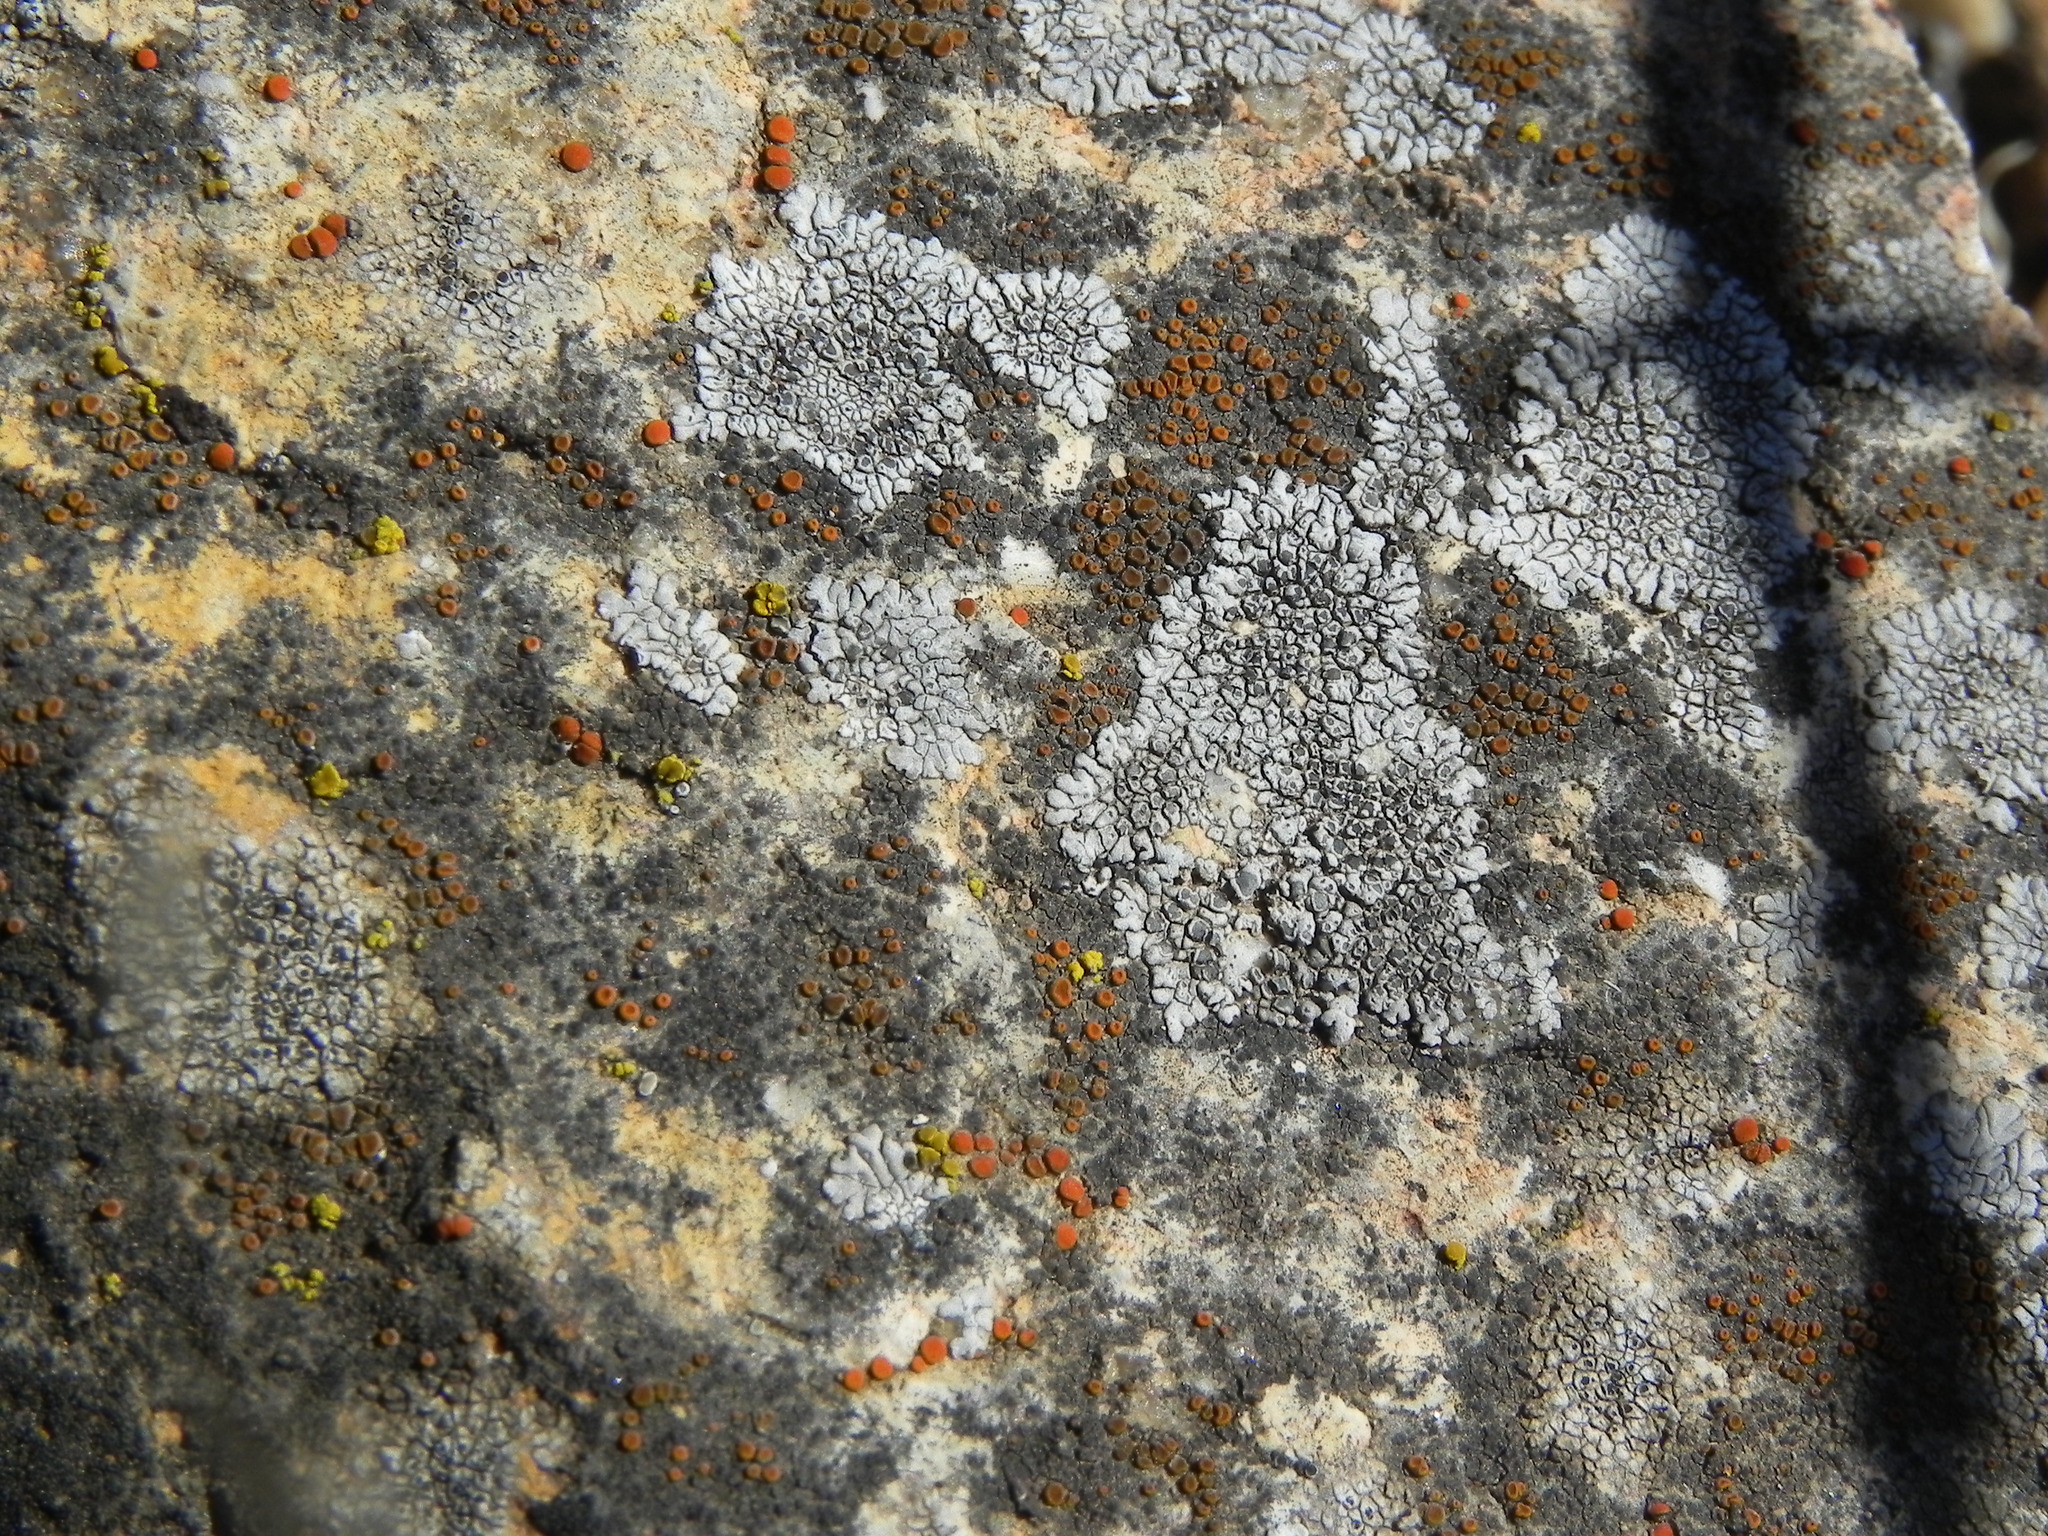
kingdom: Fungi
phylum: Ascomycota
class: Lecanoromycetes
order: Caliciales
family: Caliciaceae
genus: Dimelaena
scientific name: Dimelaena radiata
